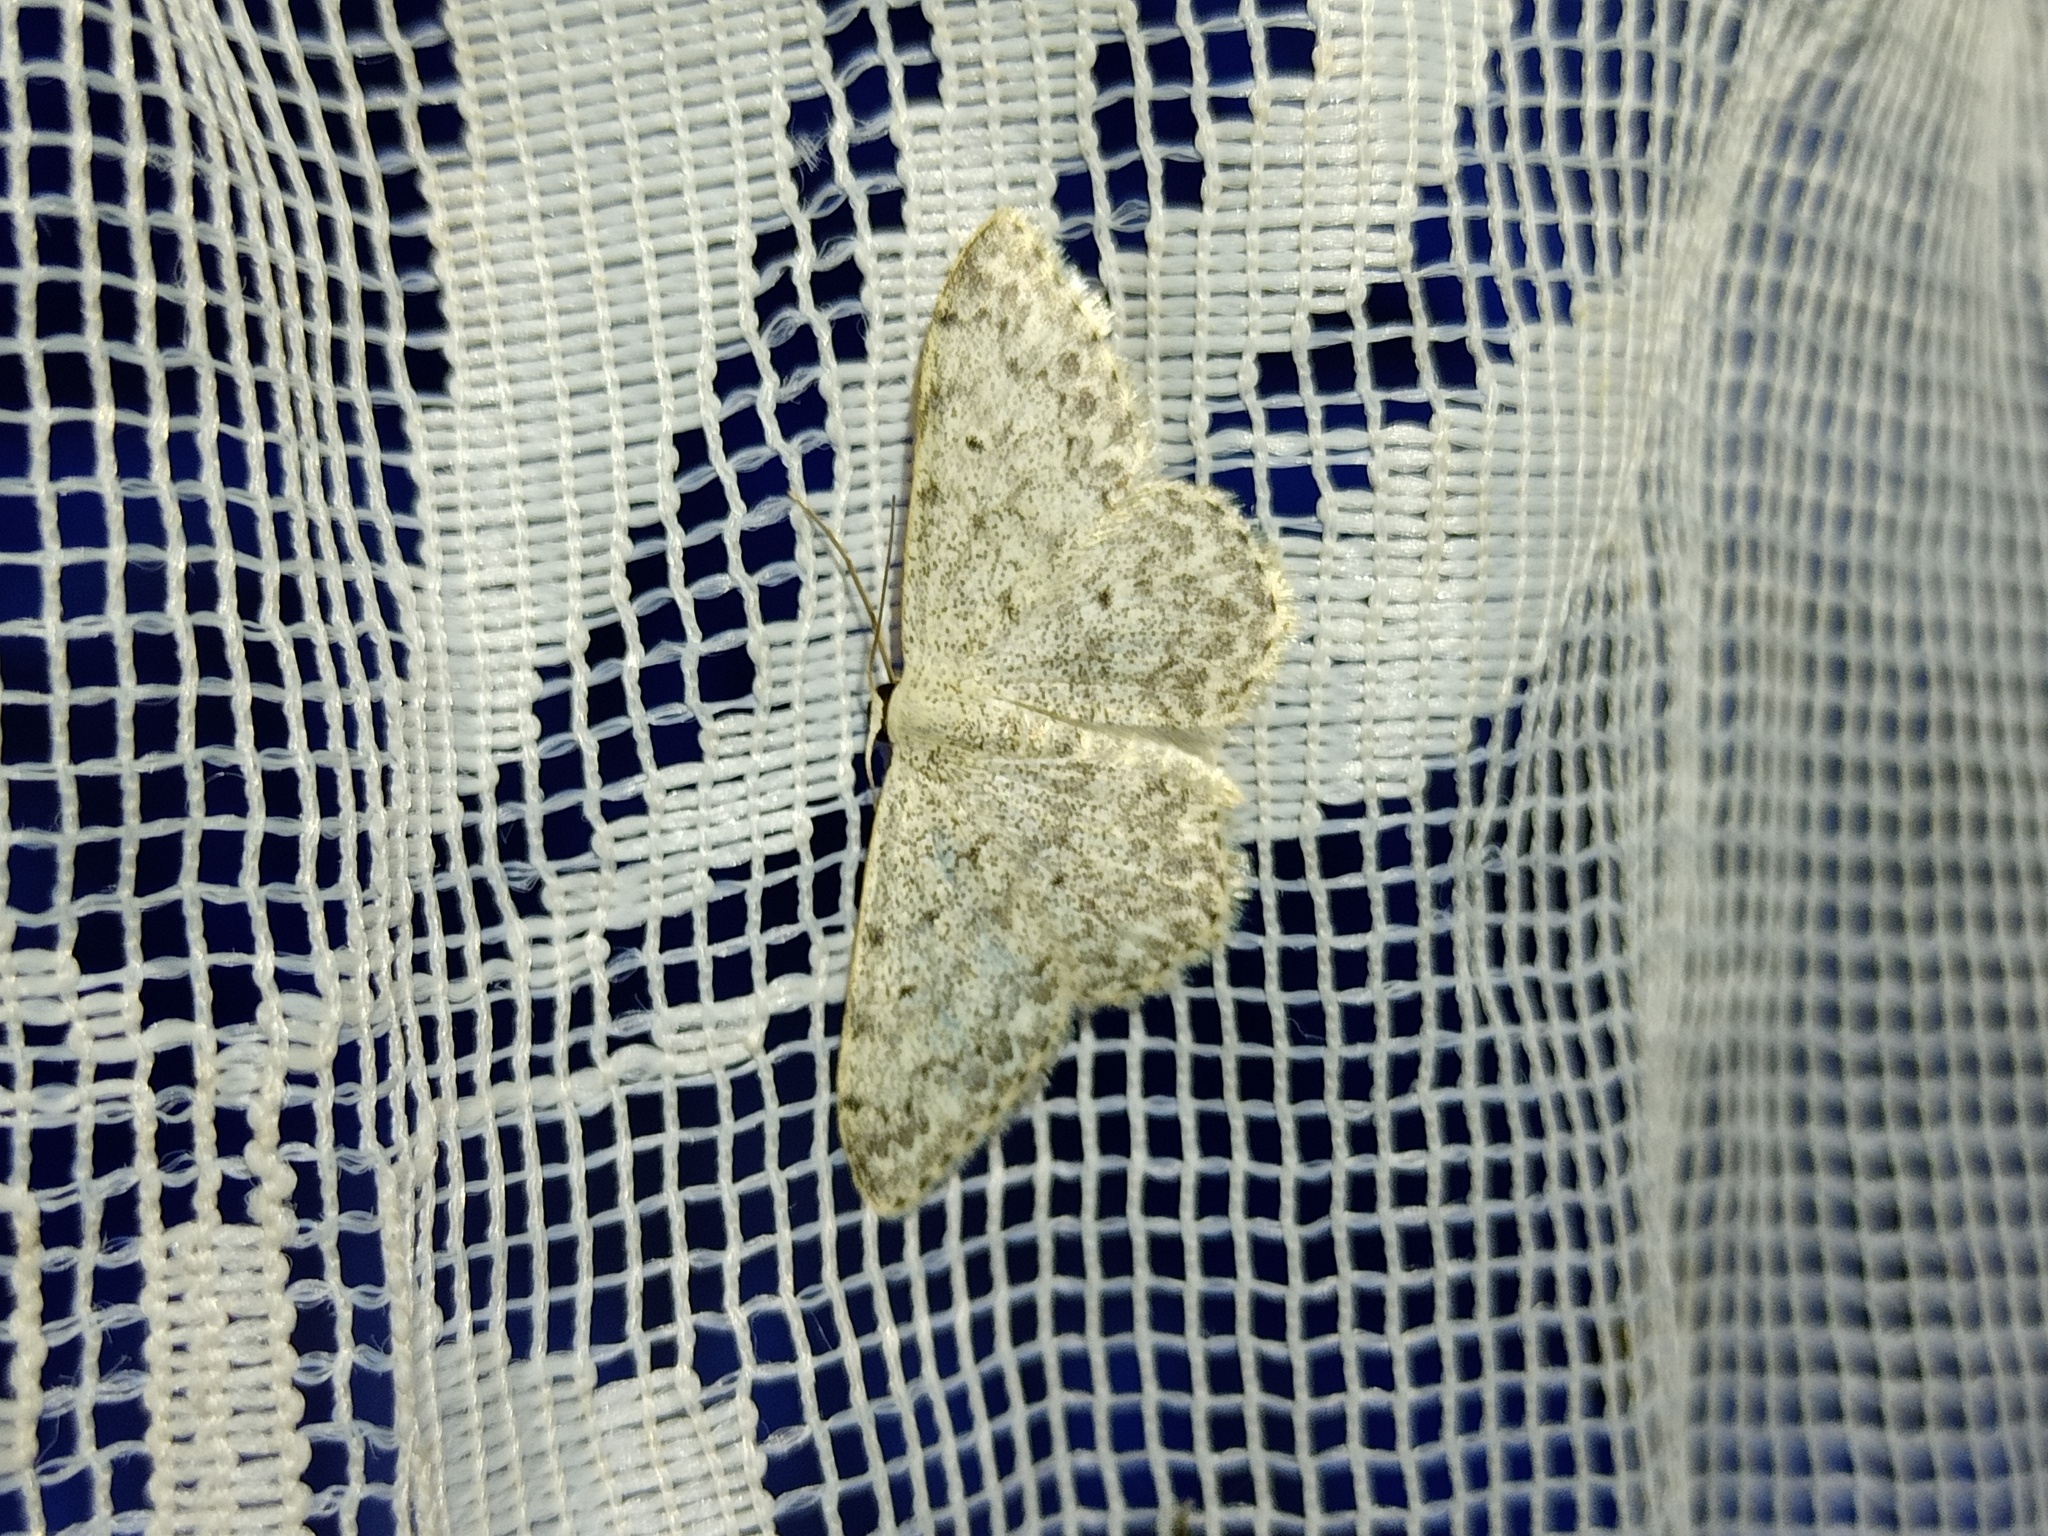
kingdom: Animalia
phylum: Arthropoda
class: Insecta
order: Lepidoptera
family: Geometridae
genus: Scopula
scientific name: Scopula marginepunctata
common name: Mullein wave
